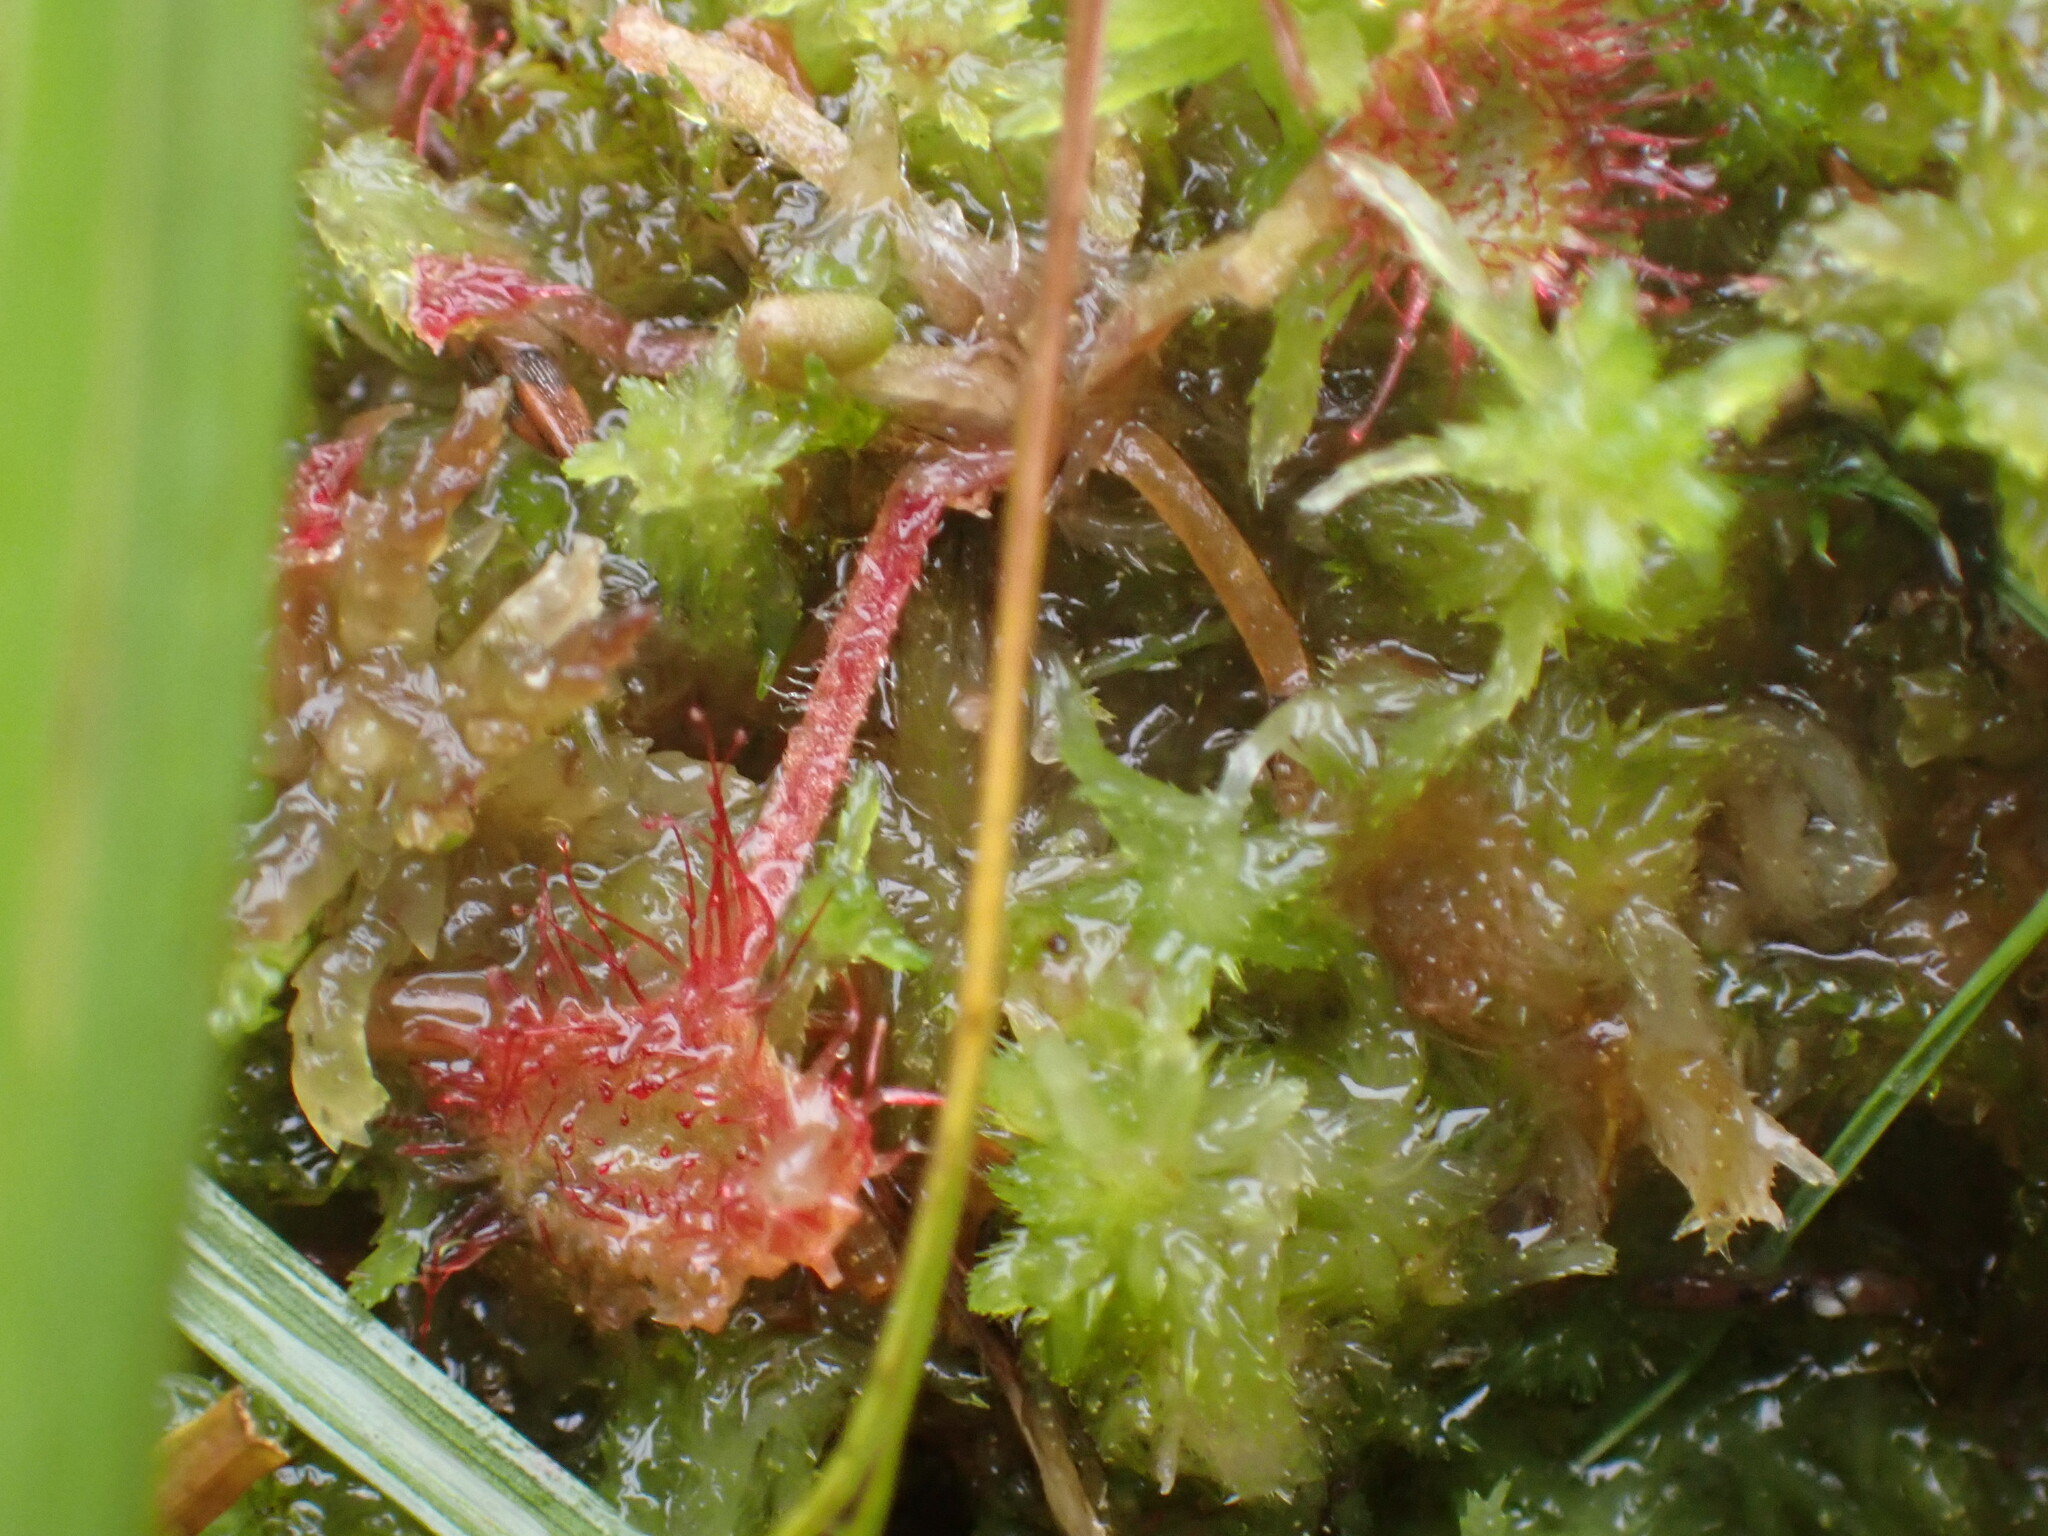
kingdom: Plantae
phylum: Tracheophyta
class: Magnoliopsida
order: Caryophyllales
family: Droseraceae
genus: Drosera
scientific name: Drosera rotundifolia
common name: Round-leaved sundew
